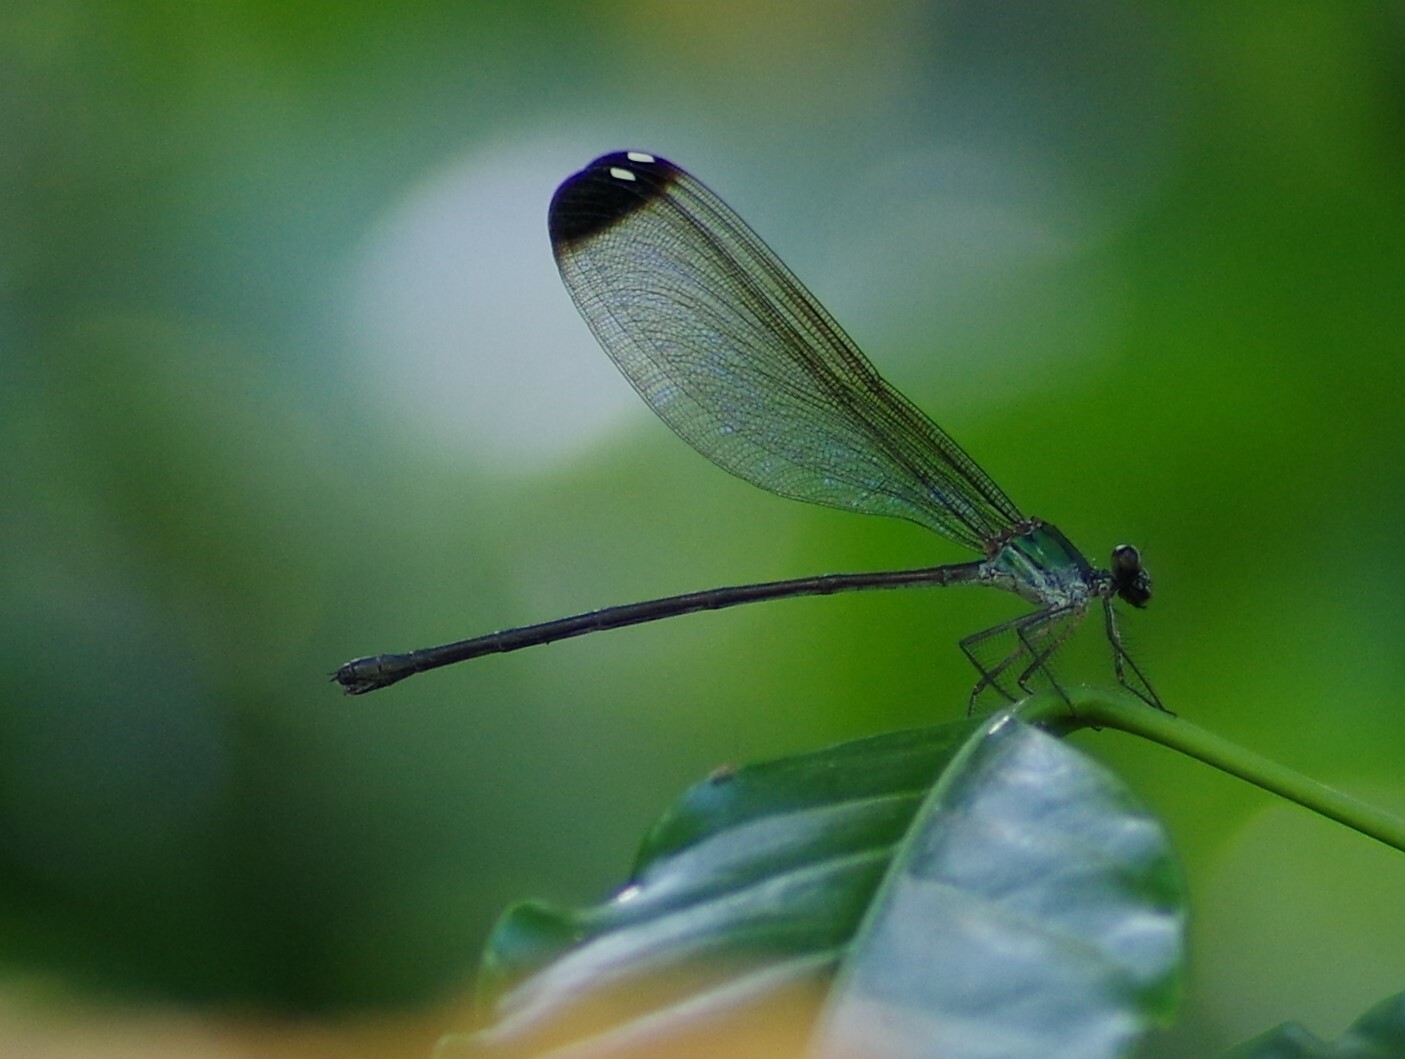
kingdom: Animalia
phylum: Arthropoda
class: Insecta
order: Odonata
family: Calopterygidae
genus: Psolodesmus
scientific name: Psolodesmus mandarinus
